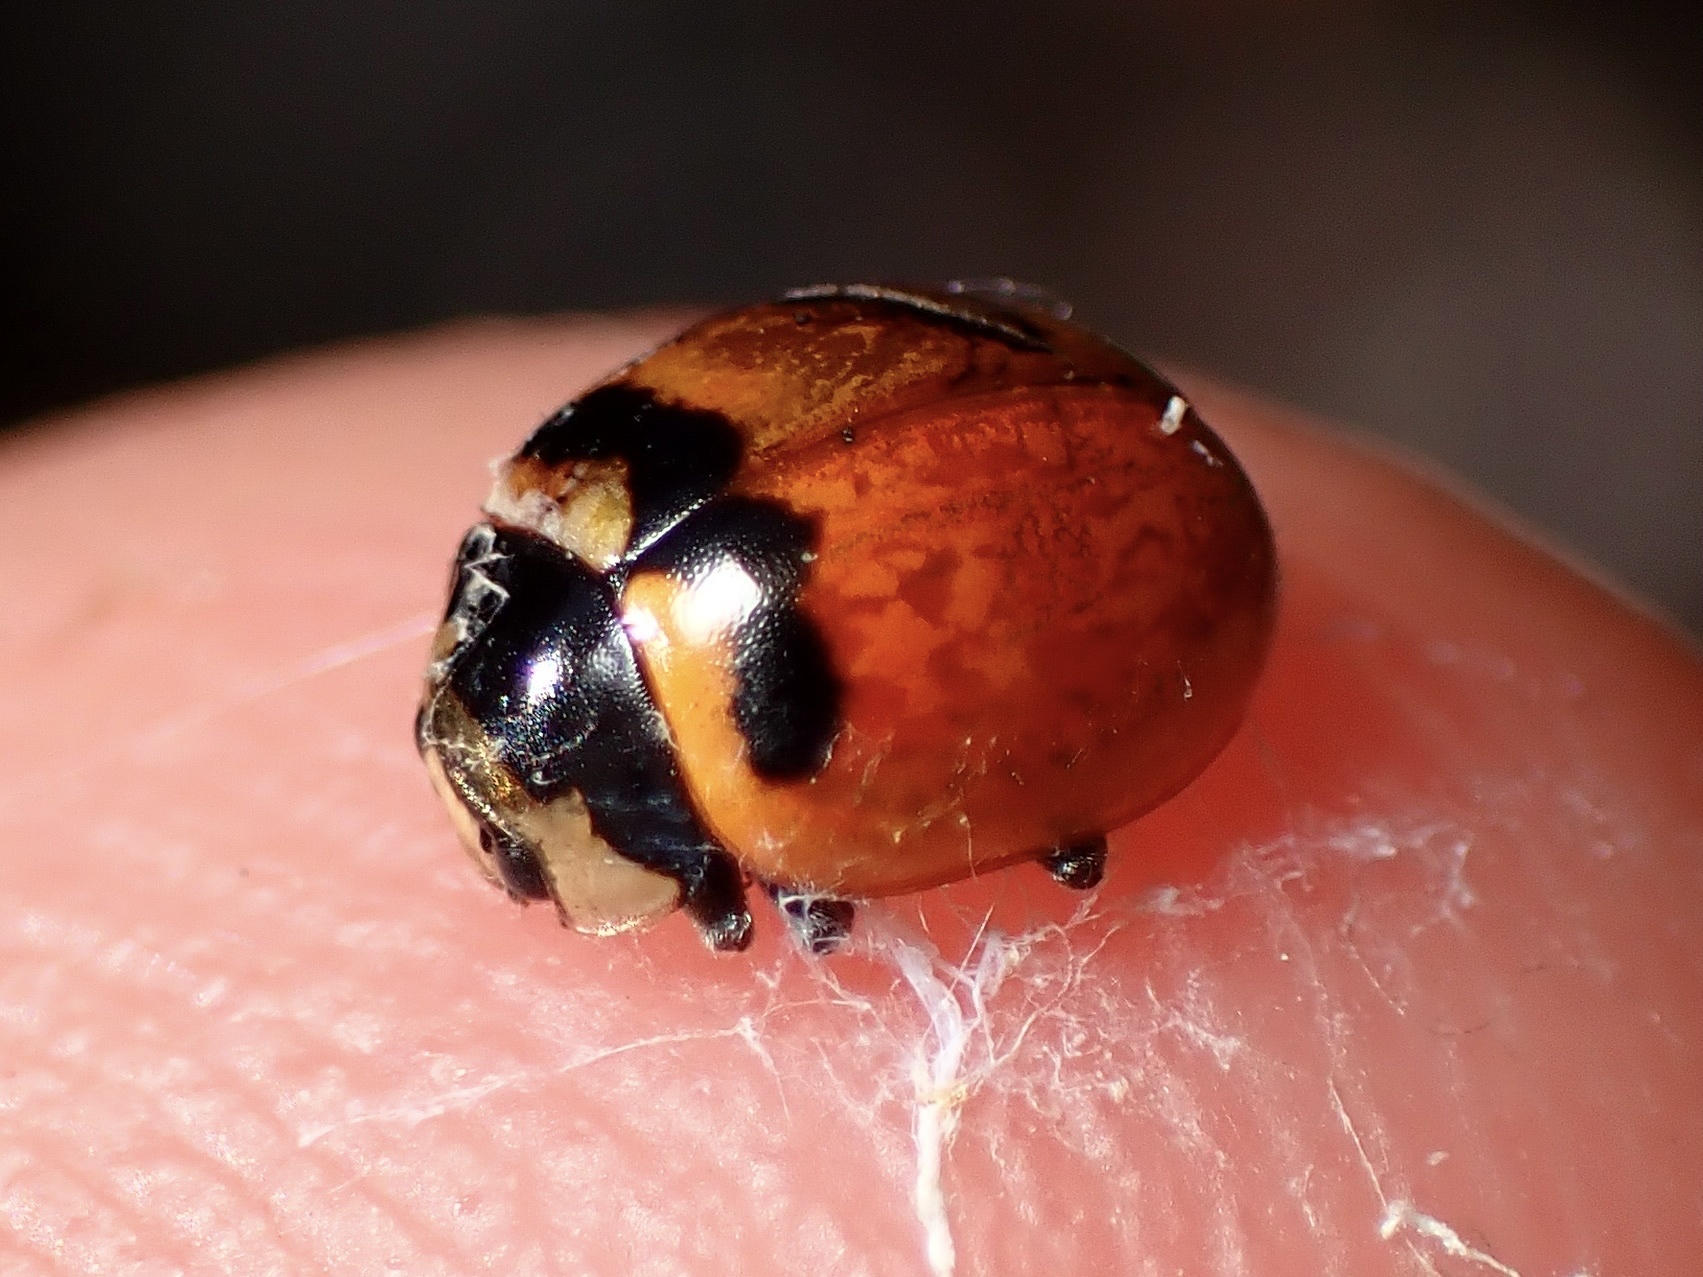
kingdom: Animalia
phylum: Arthropoda
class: Insecta
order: Coleoptera
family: Coccinellidae
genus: Coccinella
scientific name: Coccinella trifasciata
